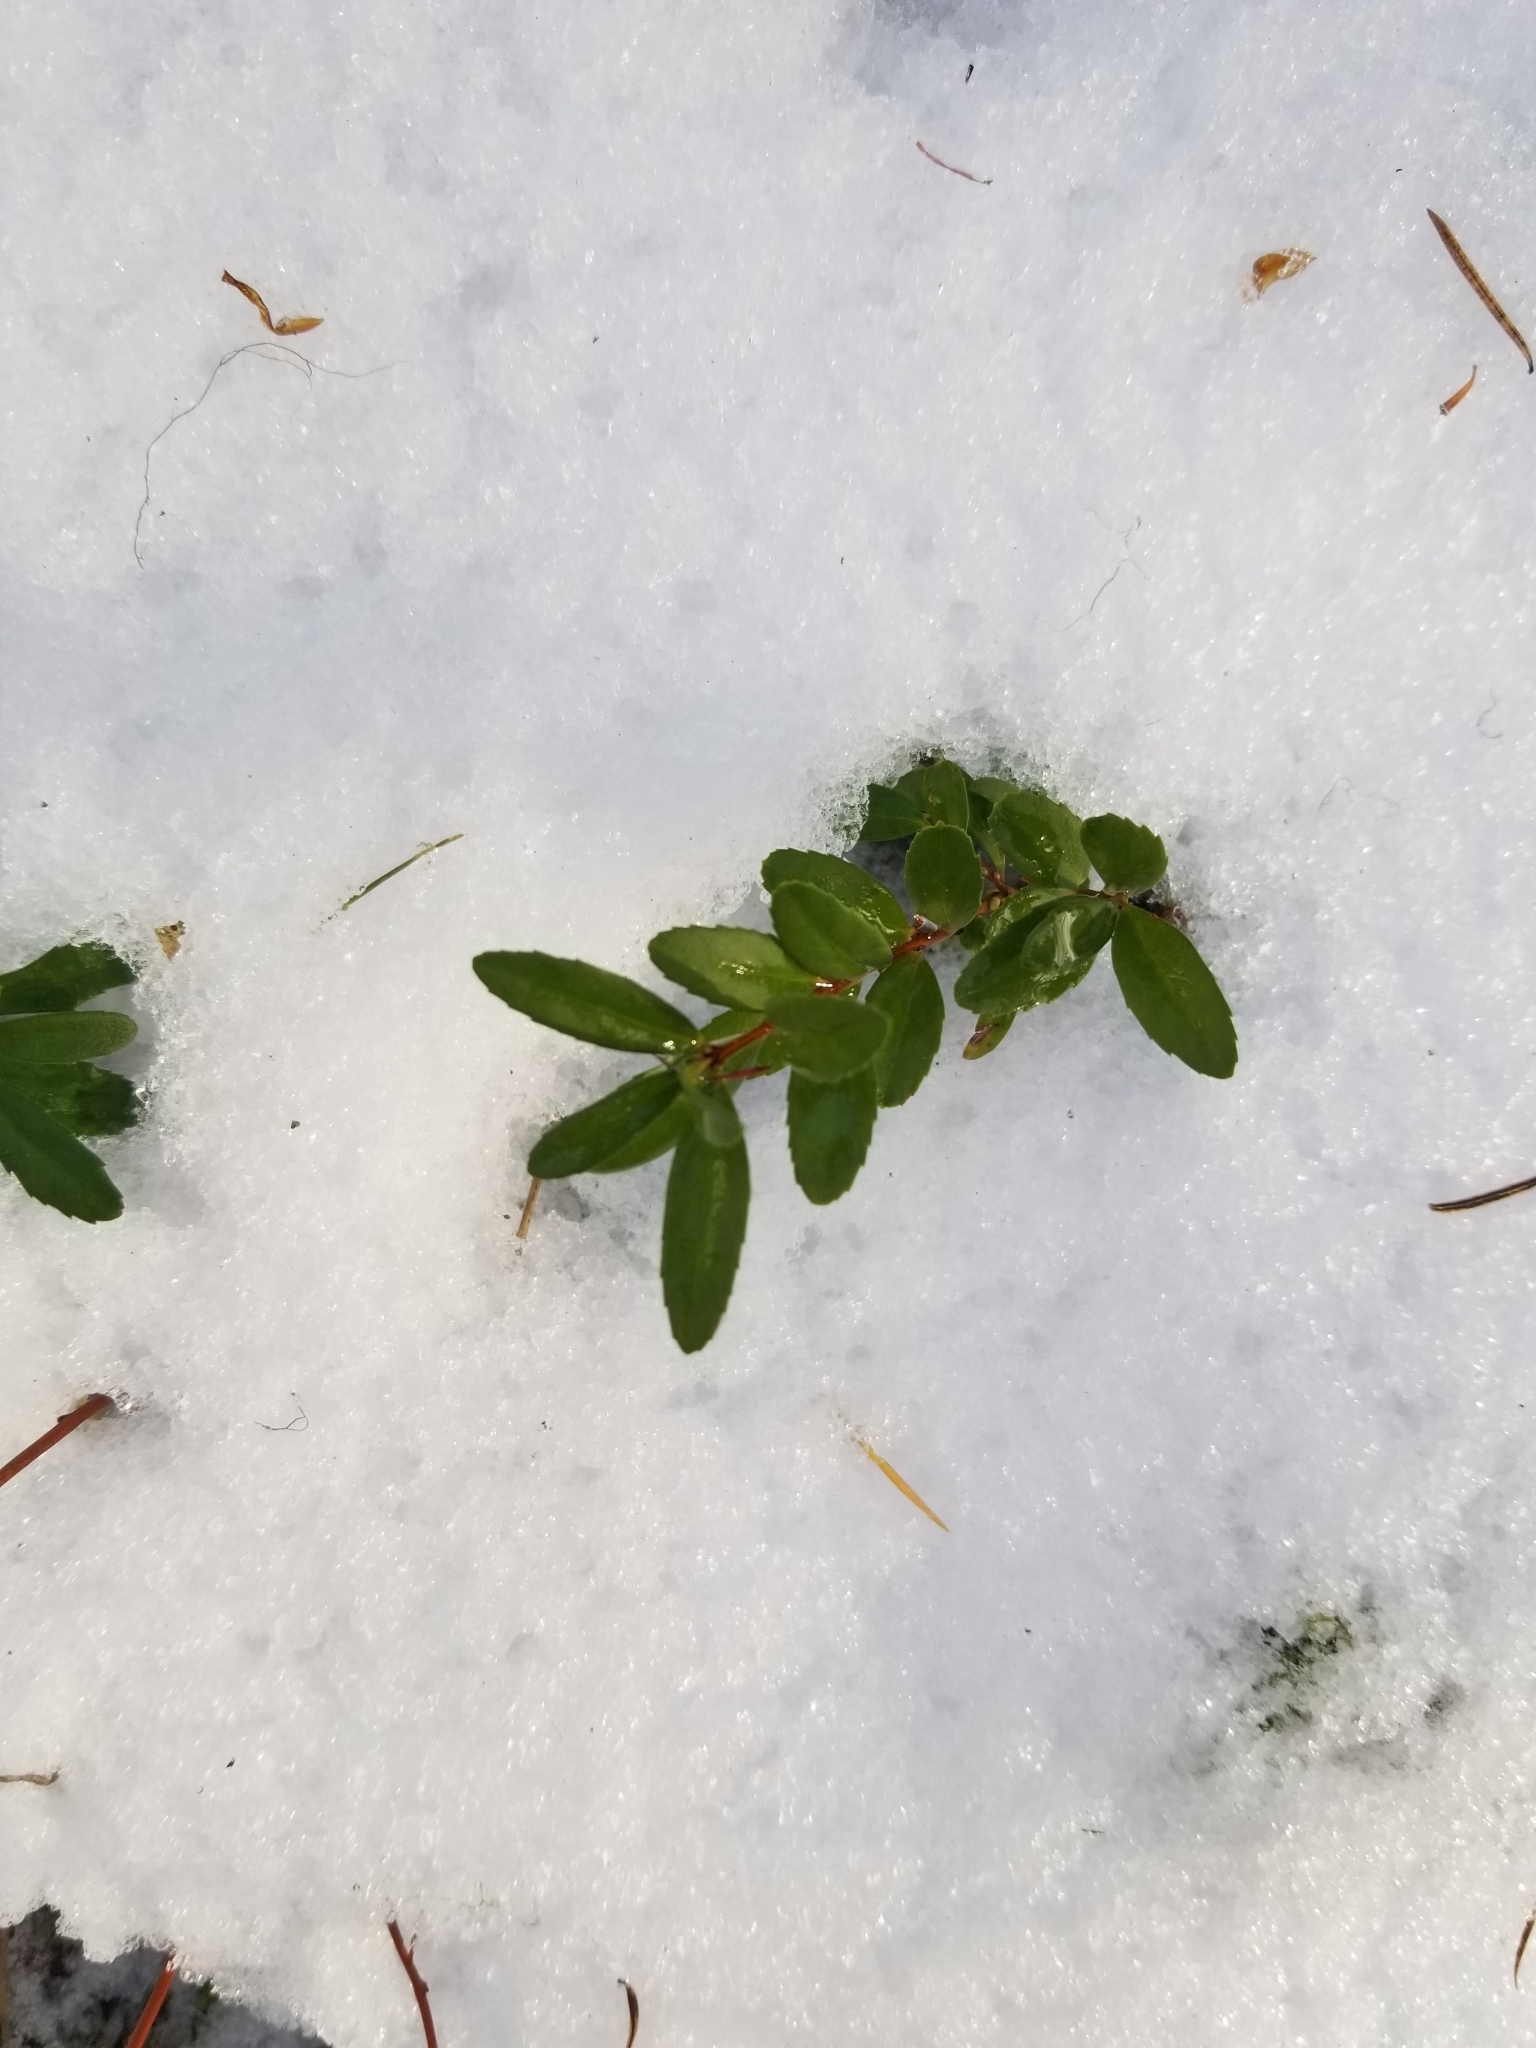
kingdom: Plantae
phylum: Tracheophyta
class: Magnoliopsida
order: Celastrales
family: Celastraceae
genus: Paxistima
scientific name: Paxistima myrsinites
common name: Mountain-lover
